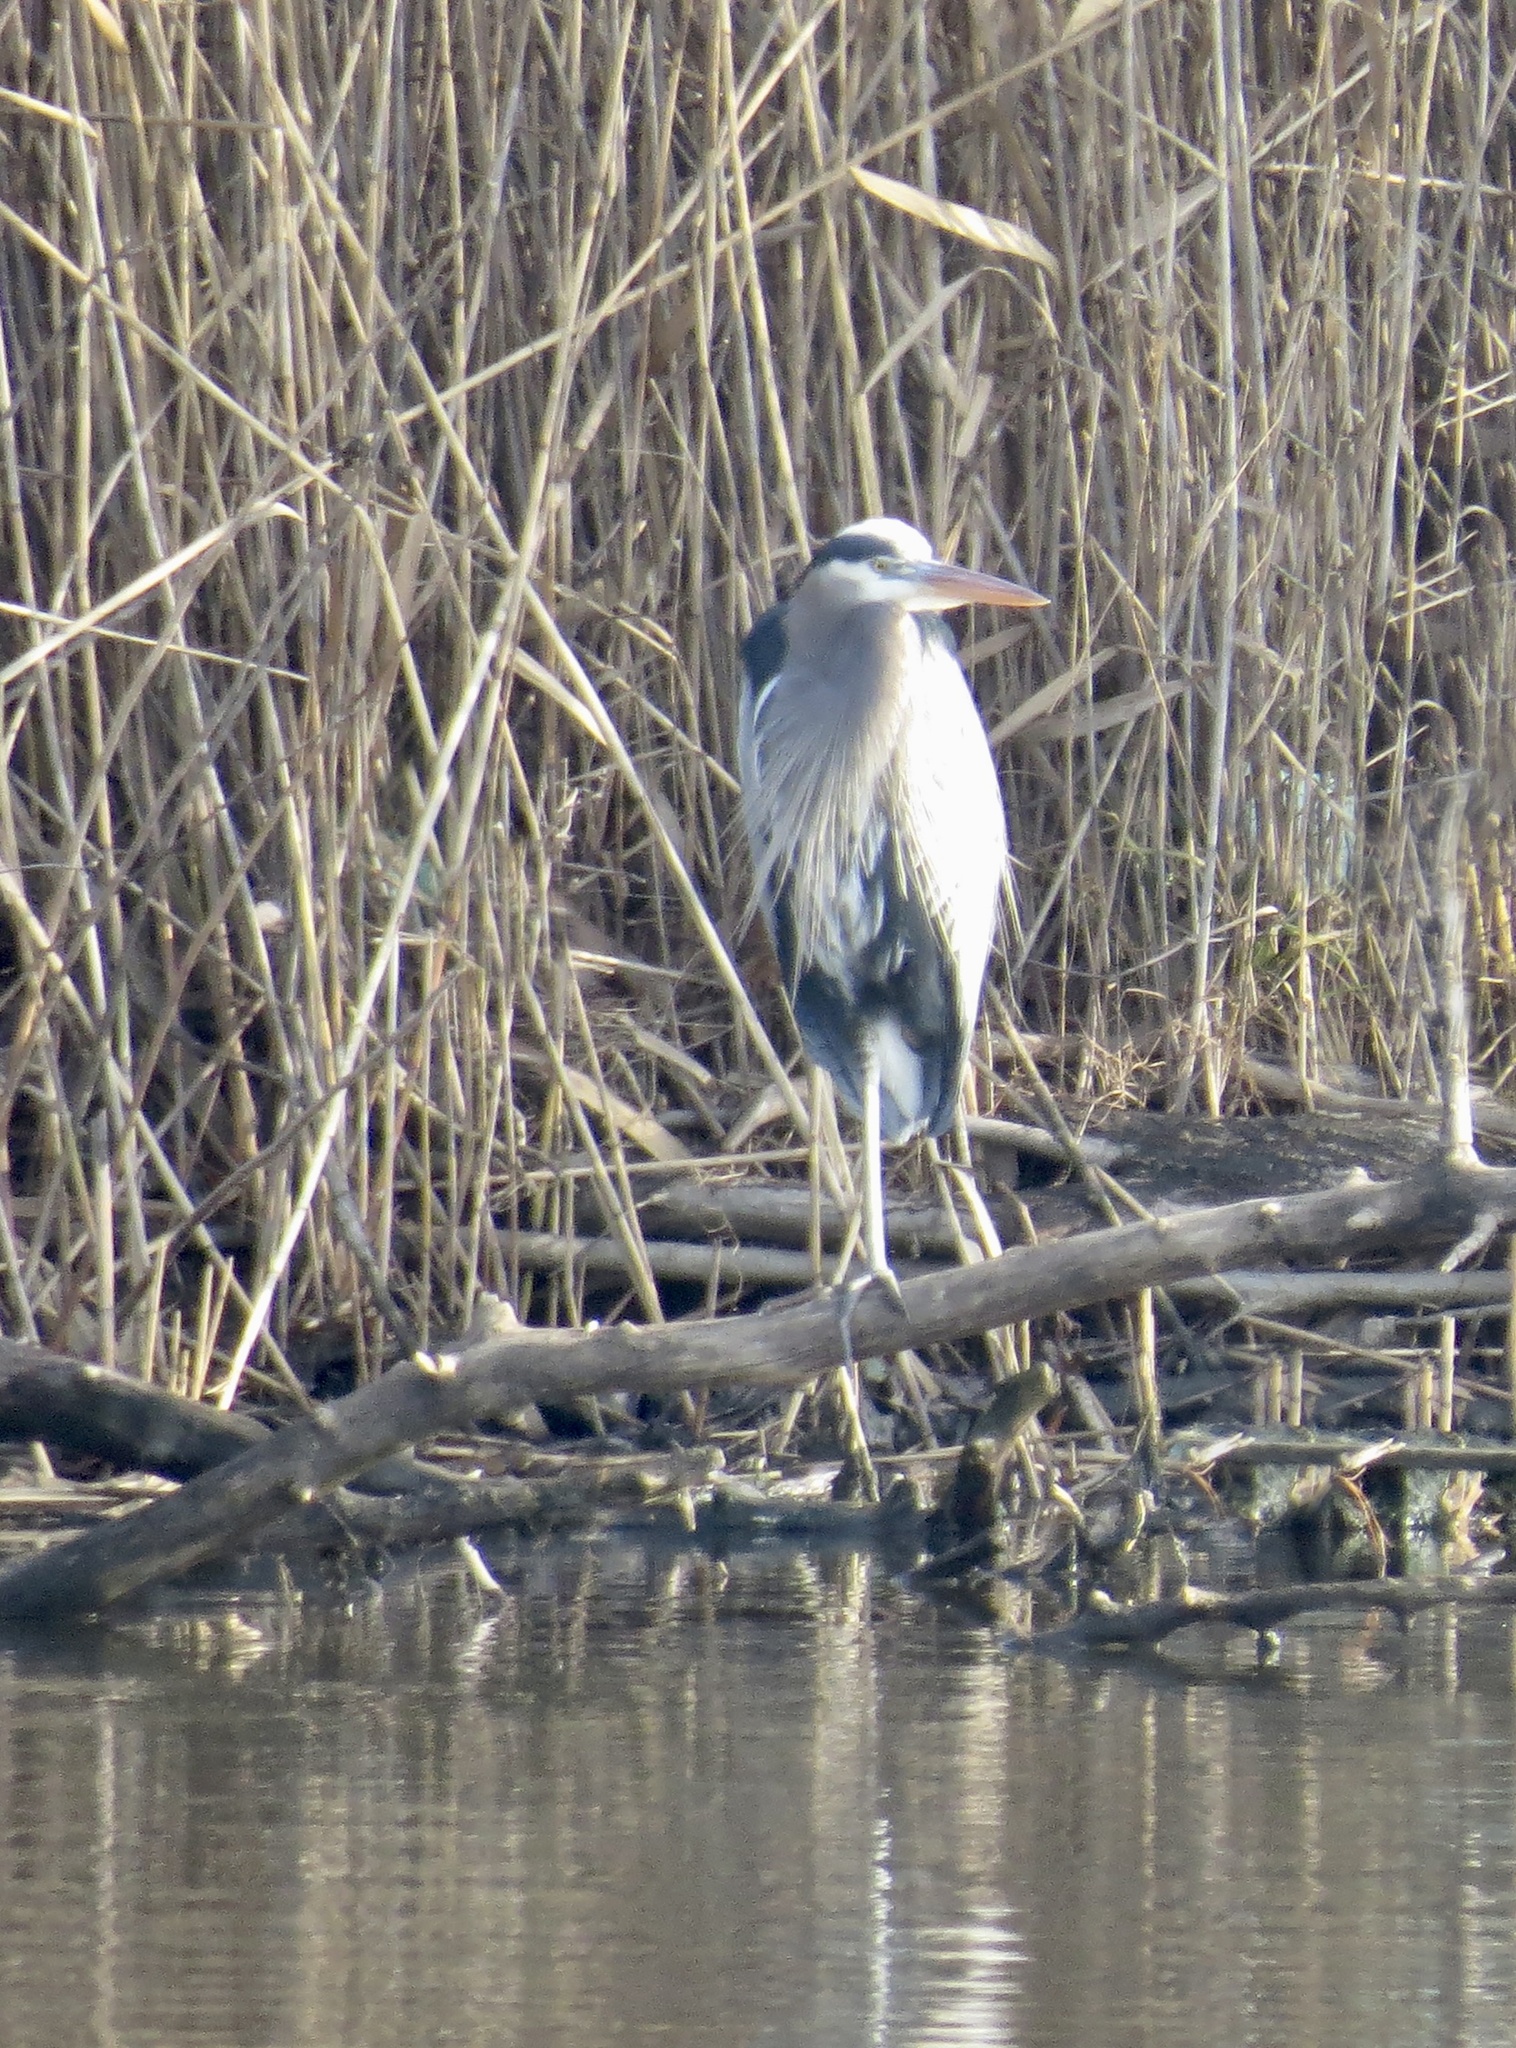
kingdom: Animalia
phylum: Chordata
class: Aves
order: Pelecaniformes
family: Ardeidae
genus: Ardea
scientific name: Ardea herodias
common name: Great blue heron
